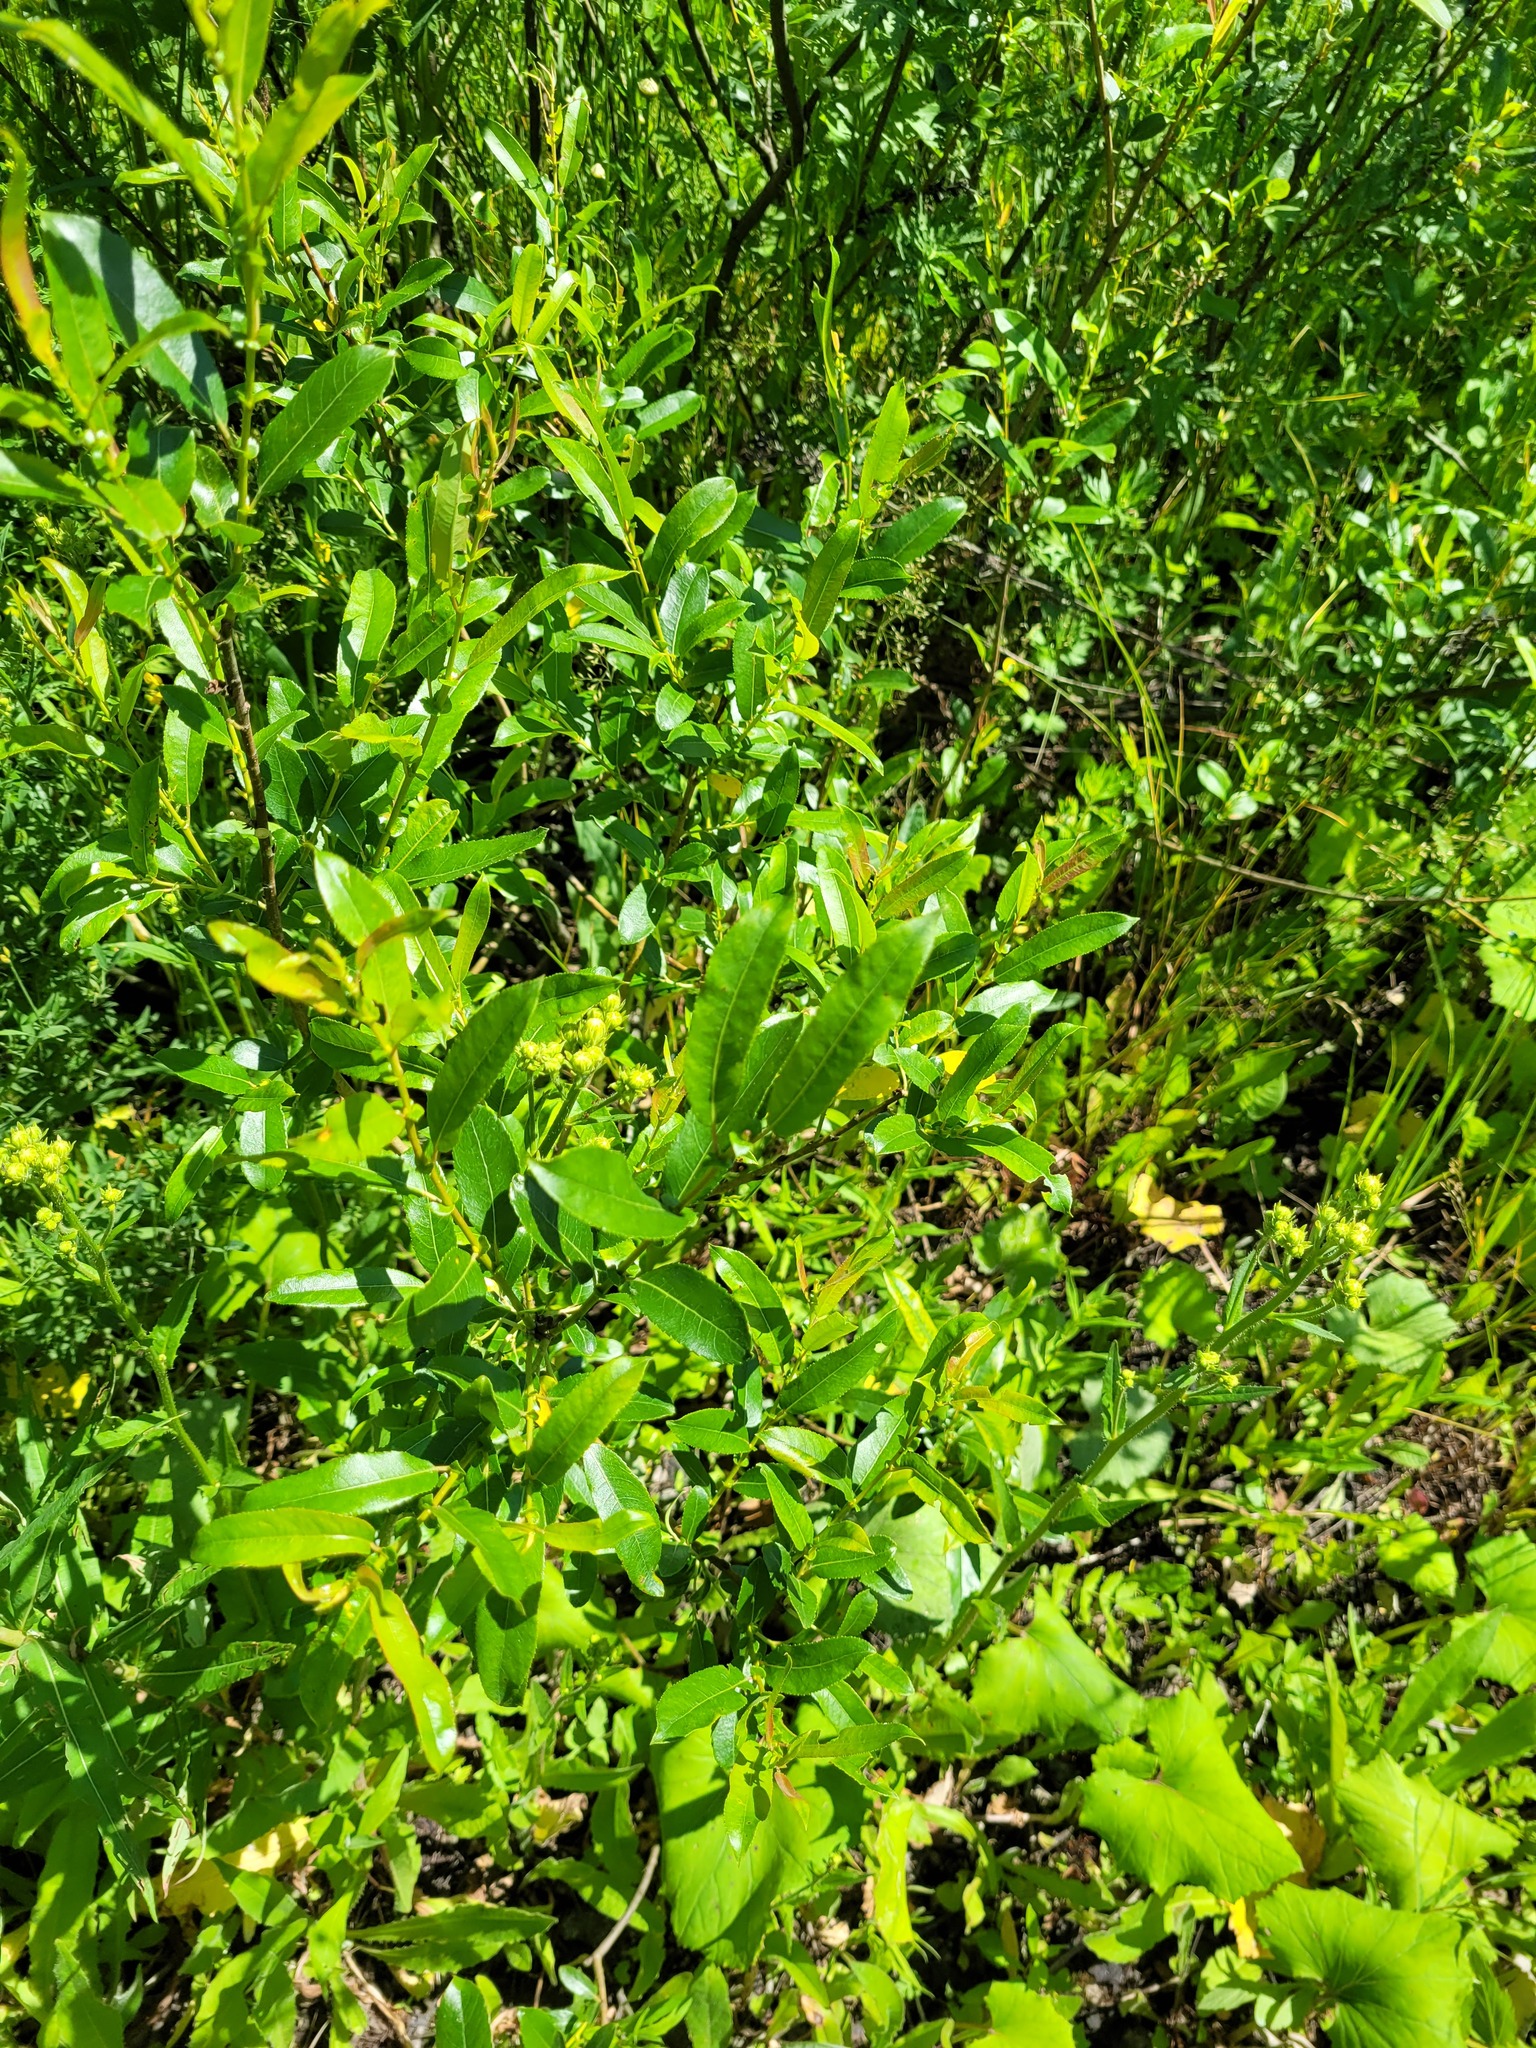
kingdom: Plantae
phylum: Tracheophyta
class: Magnoliopsida
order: Malpighiales
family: Salicaceae
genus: Salix
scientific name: Salix triandra
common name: Almond willow
